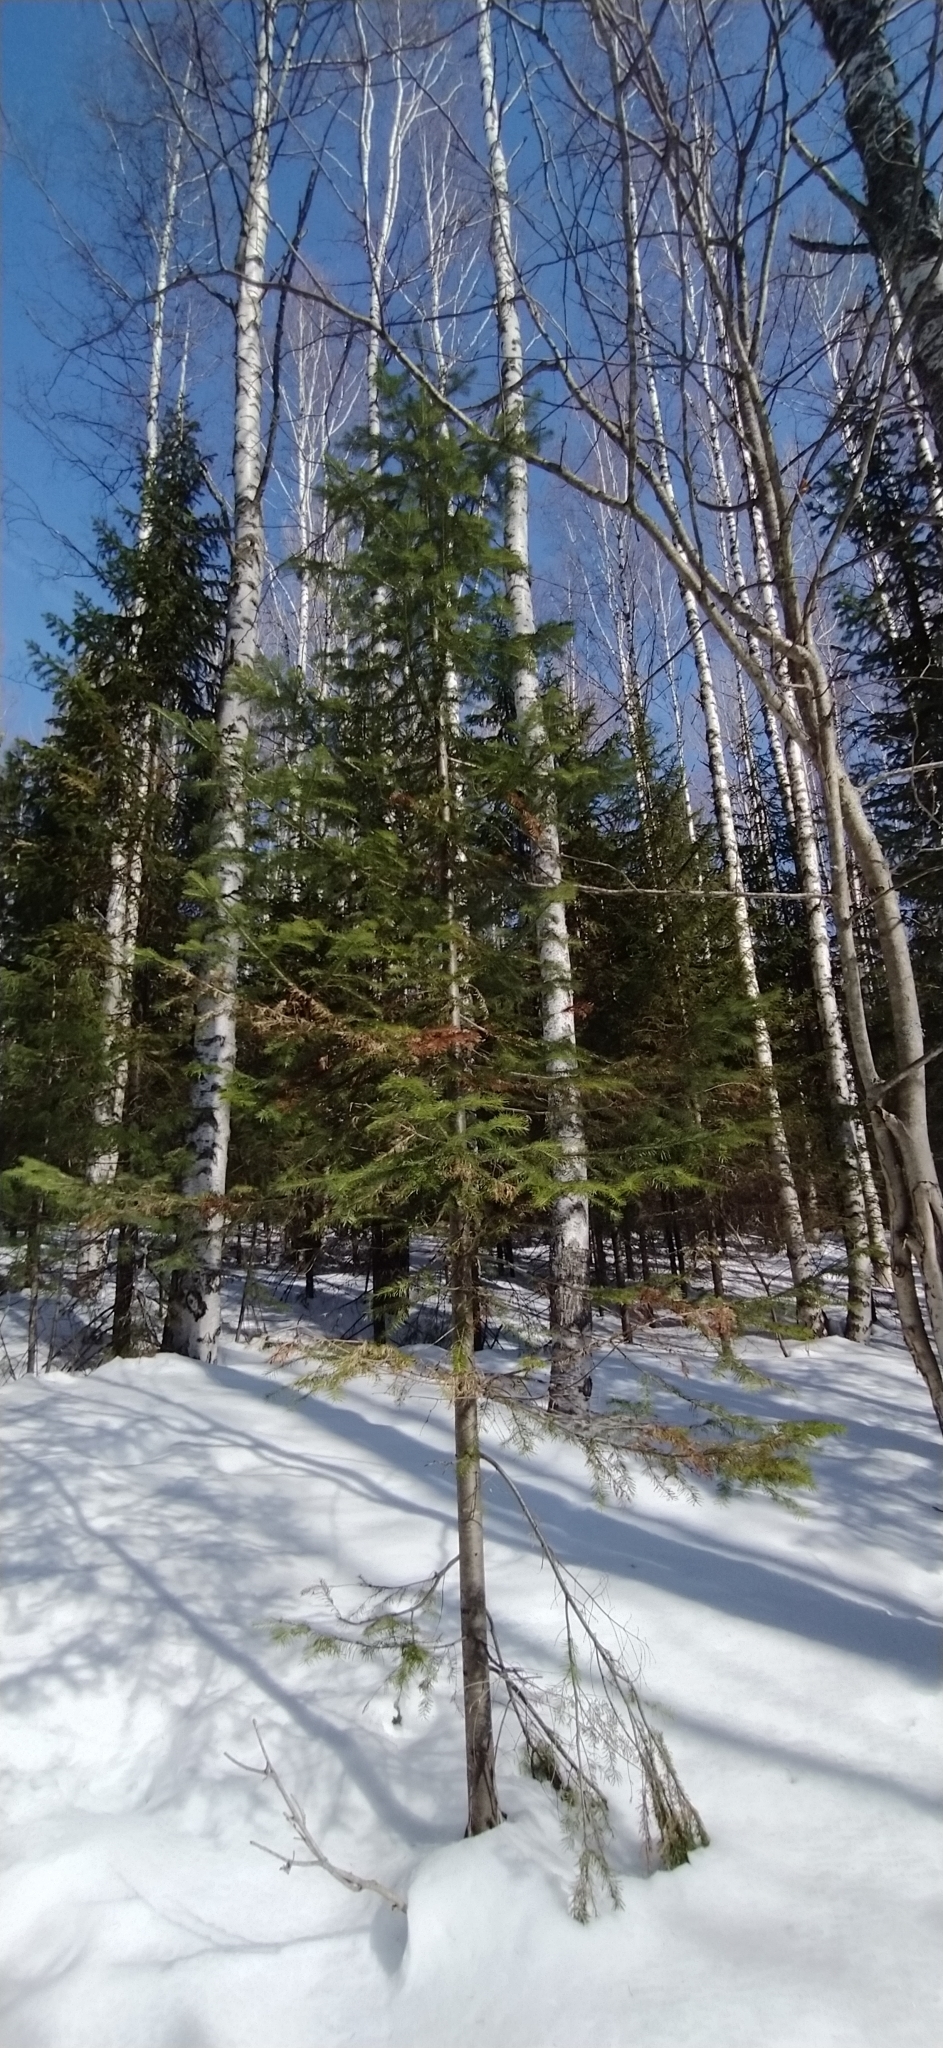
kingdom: Plantae
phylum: Tracheophyta
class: Pinopsida
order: Pinales
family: Pinaceae
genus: Abies
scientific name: Abies sibirica
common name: Siberian fir
